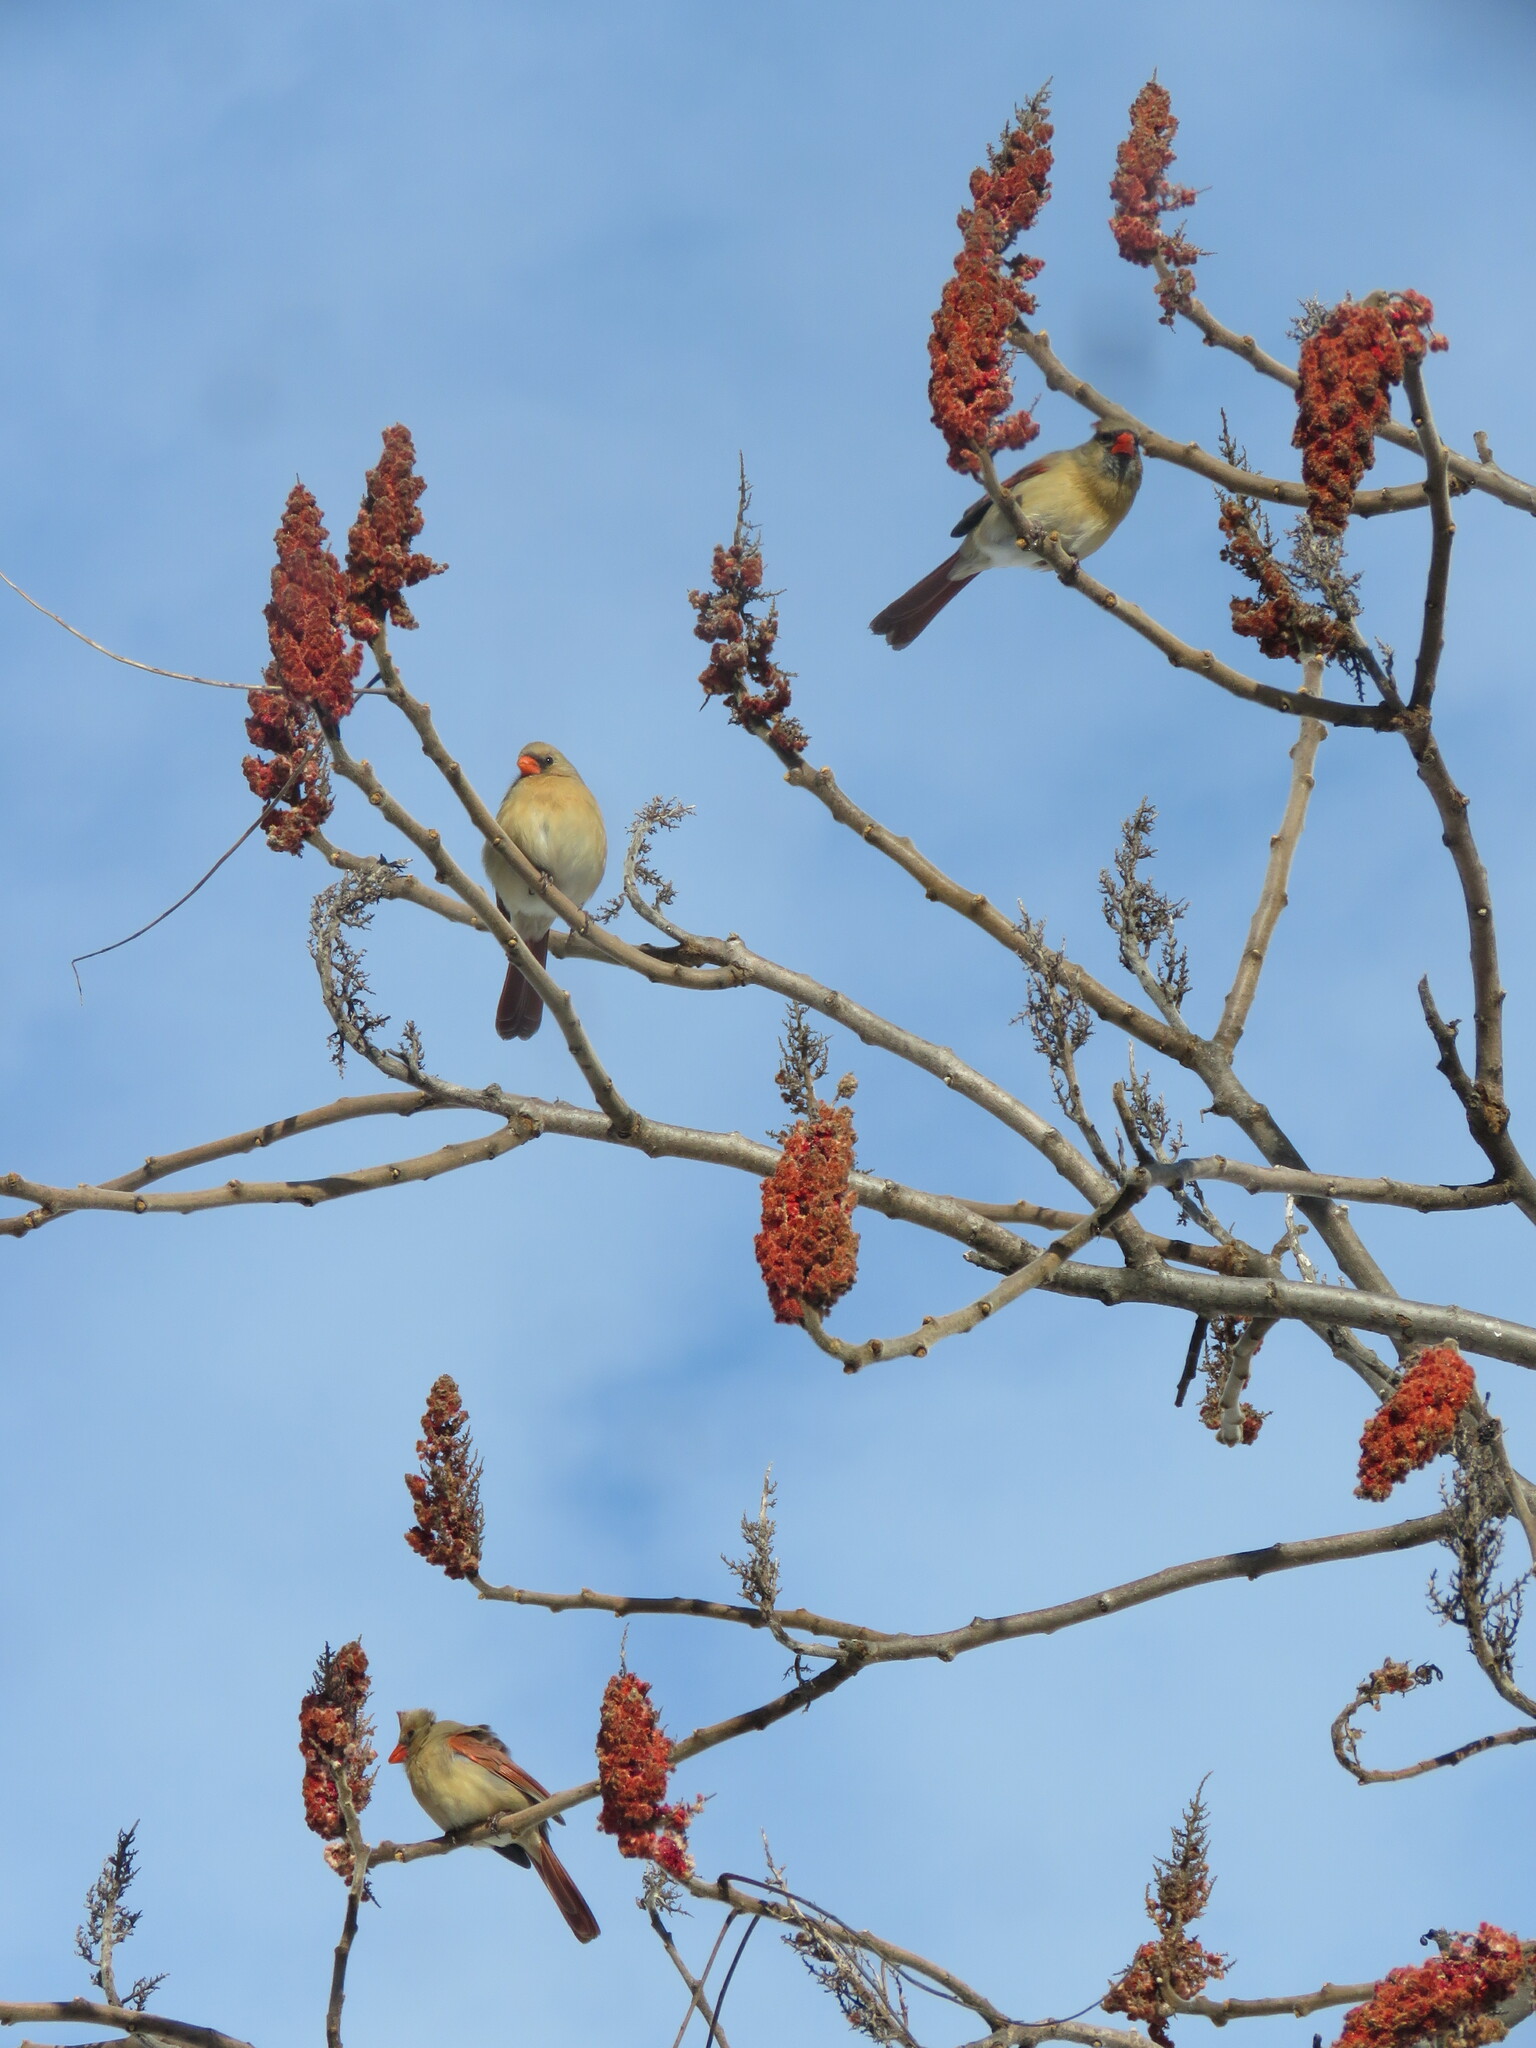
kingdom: Animalia
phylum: Chordata
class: Aves
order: Passeriformes
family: Cardinalidae
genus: Cardinalis
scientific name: Cardinalis cardinalis
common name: Northern cardinal
